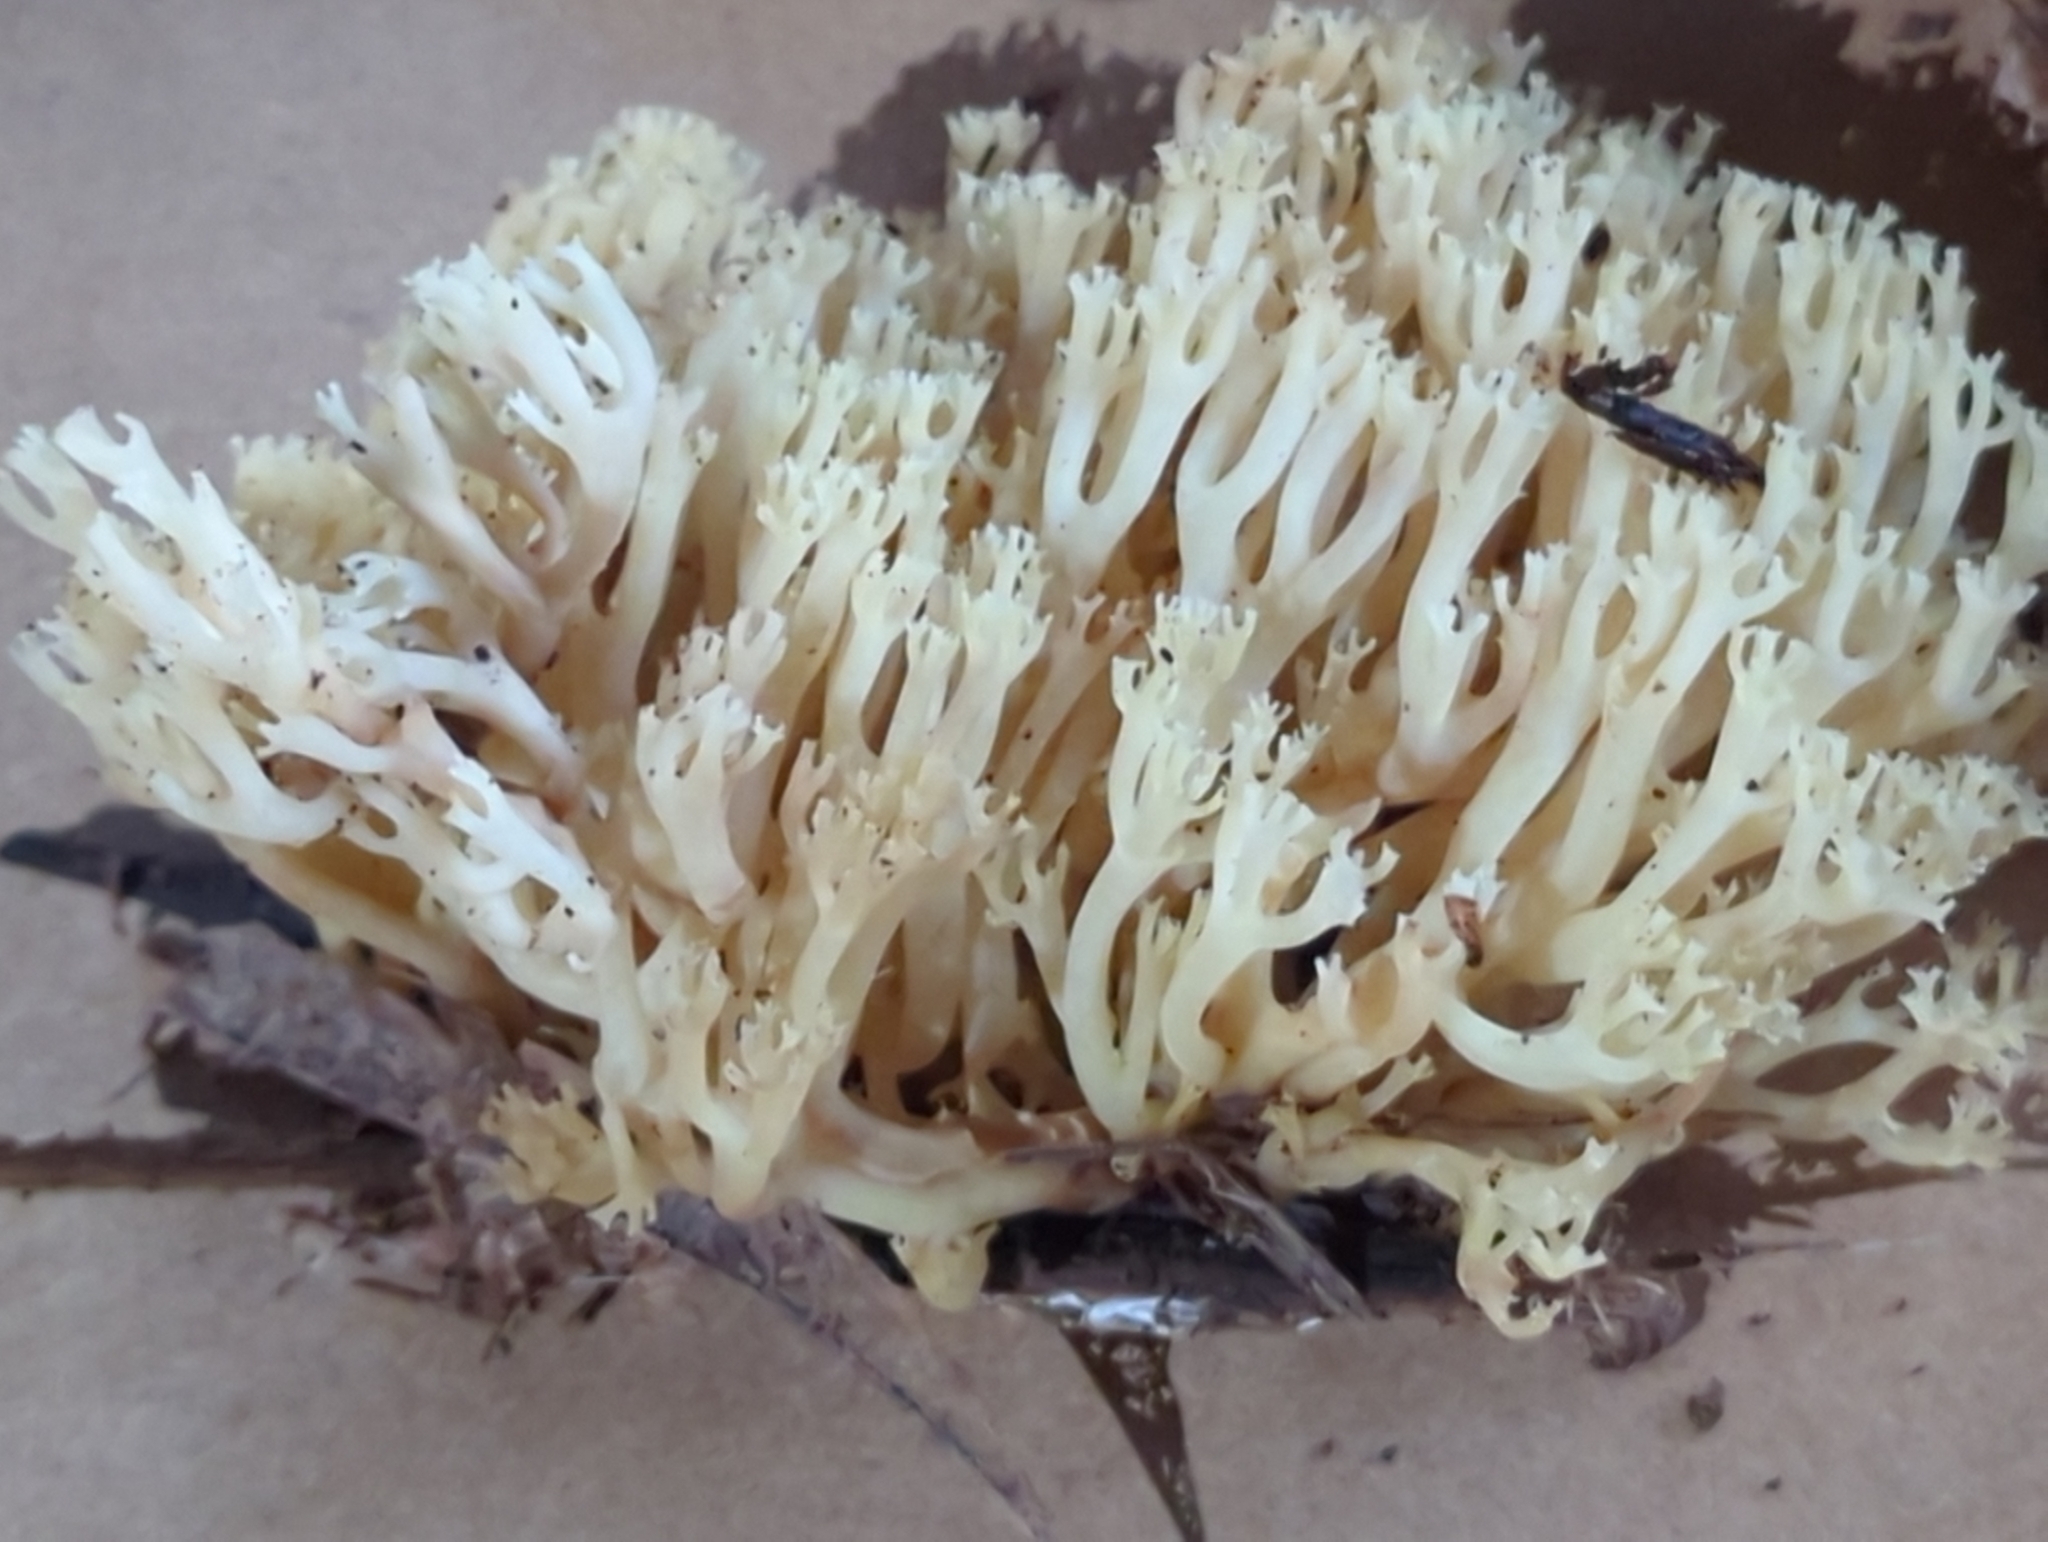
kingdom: Fungi
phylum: Basidiomycota
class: Agaricomycetes
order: Russulales
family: Auriscalpiaceae
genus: Artomyces
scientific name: Artomyces pyxidatus
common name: Crown-tipped coral fungus
